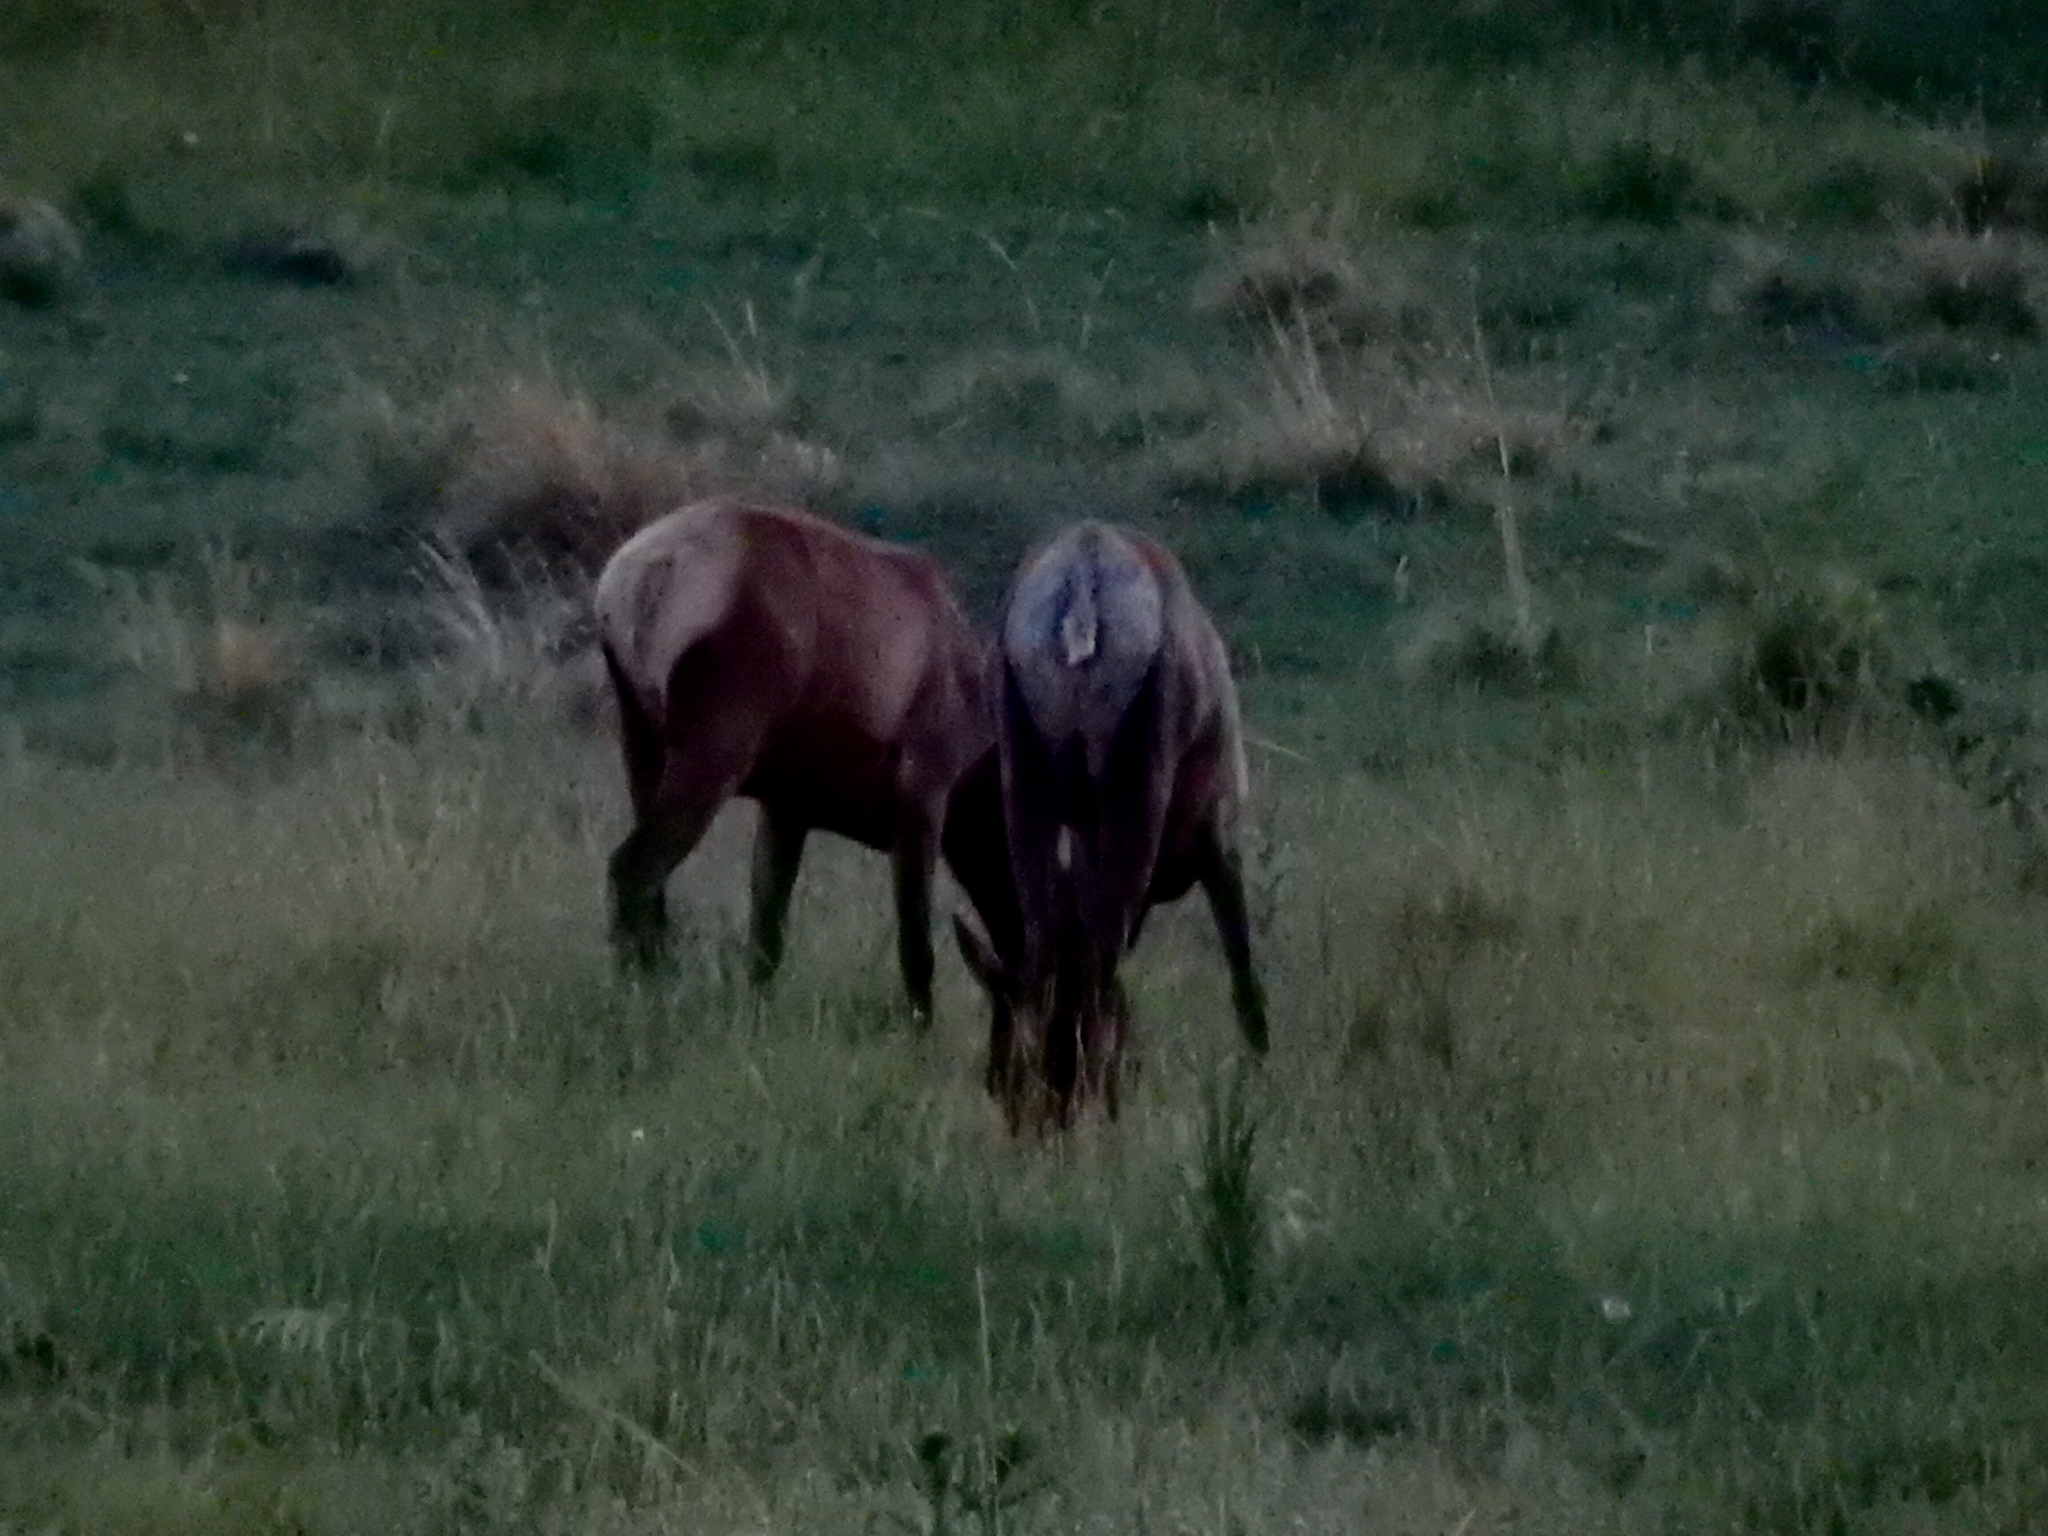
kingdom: Animalia
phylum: Chordata
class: Mammalia
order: Artiodactyla
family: Cervidae
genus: Cervus
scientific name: Cervus elaphus
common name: Red deer
